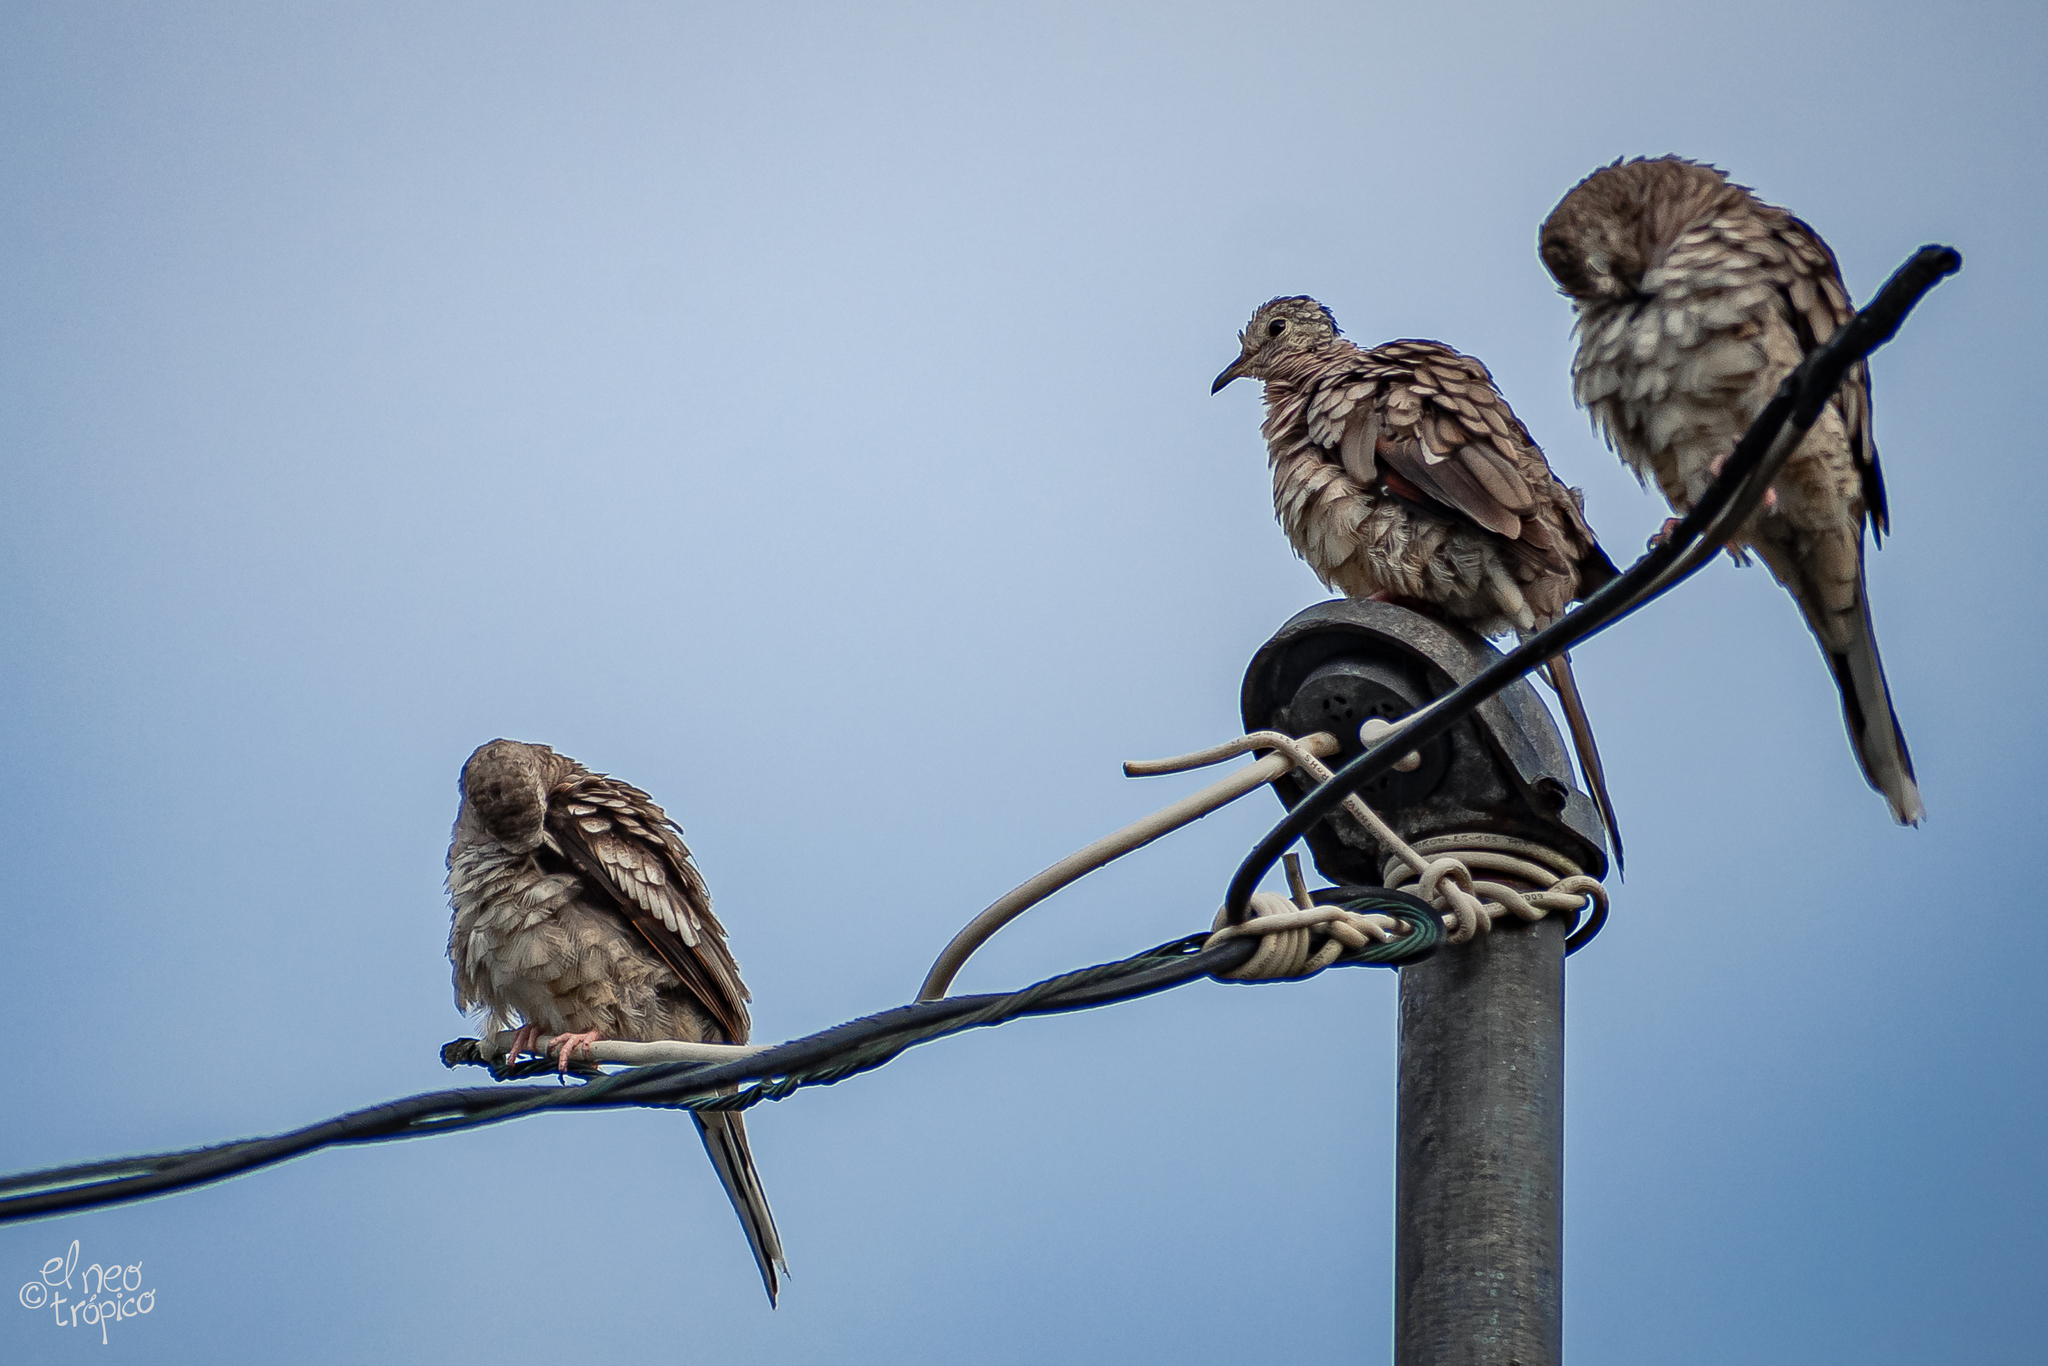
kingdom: Animalia
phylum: Chordata
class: Aves
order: Columbiformes
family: Columbidae
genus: Columbina
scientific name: Columbina inca
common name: Inca dove
